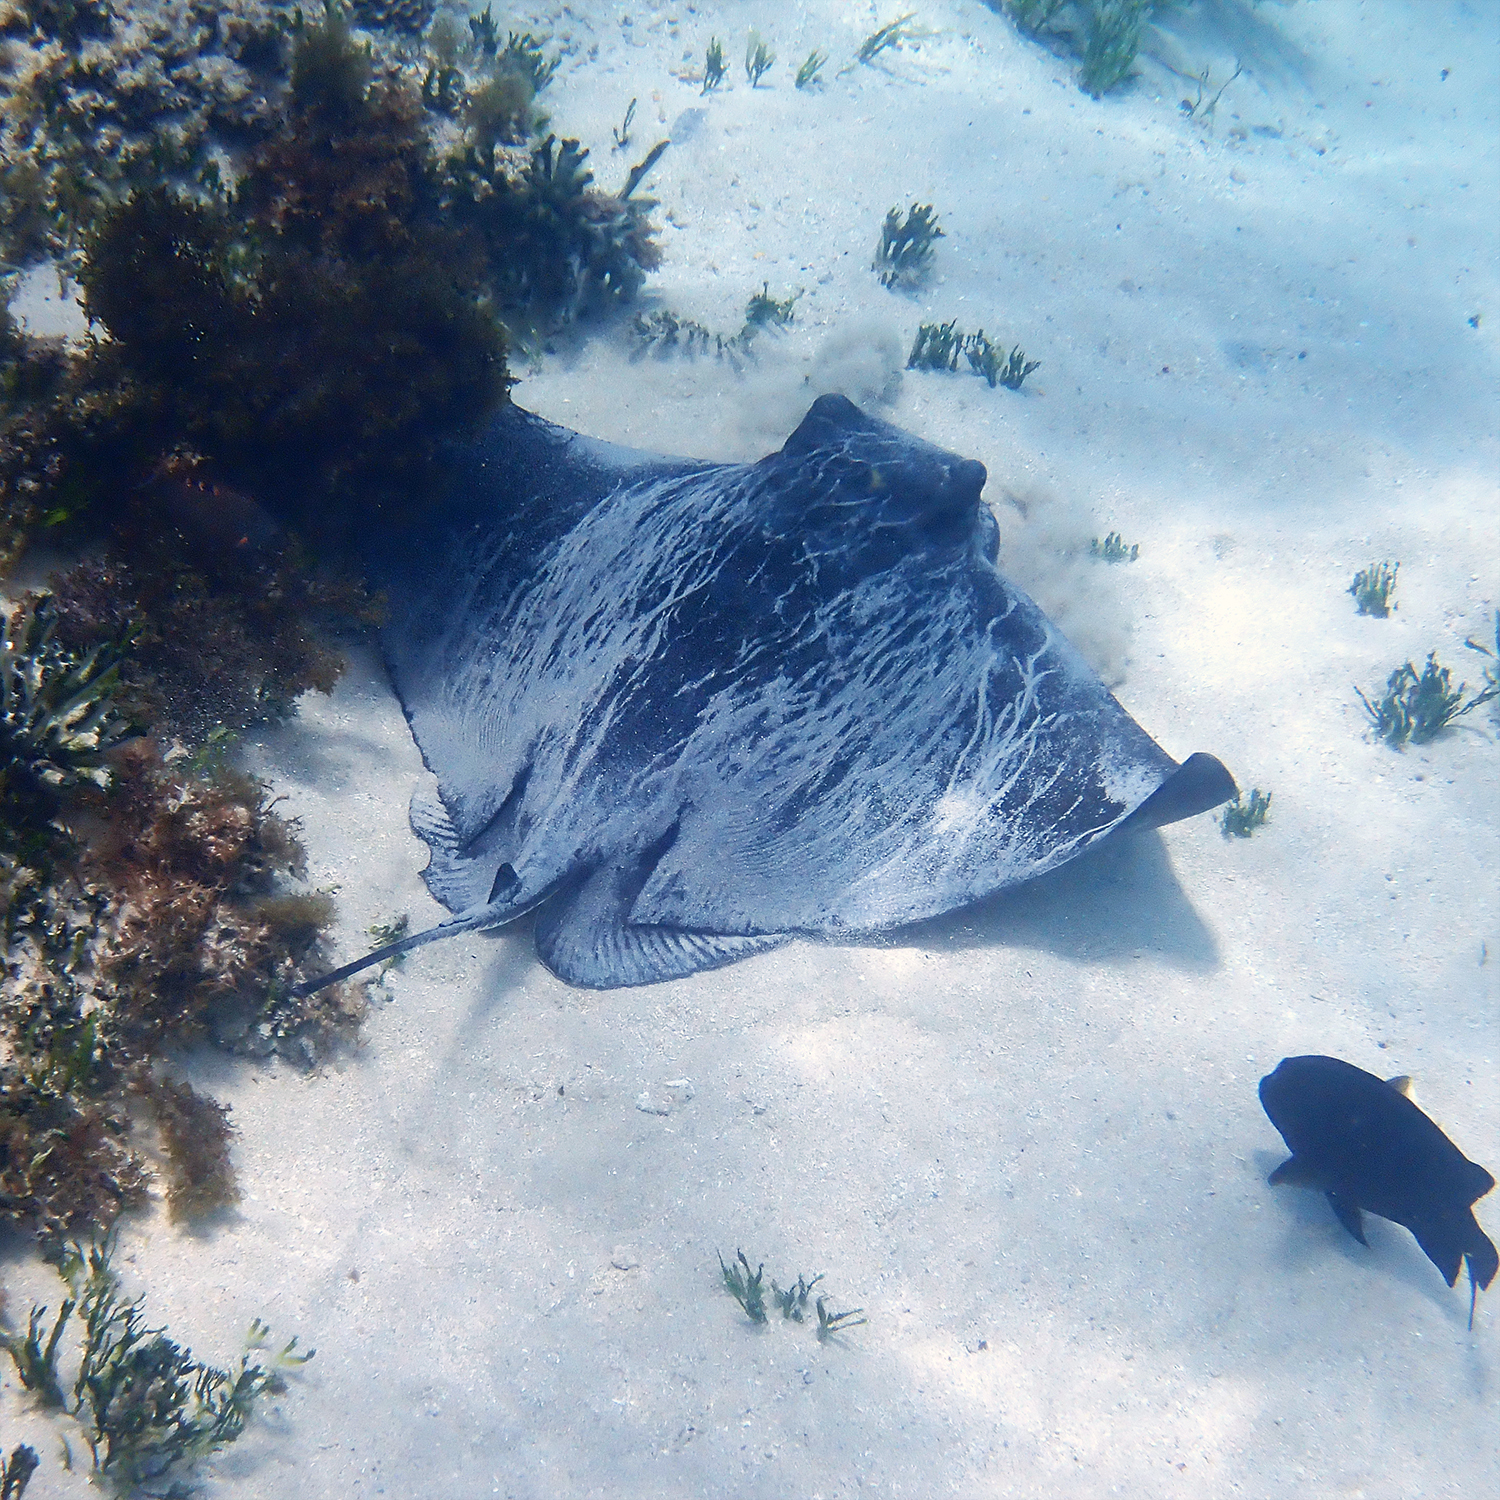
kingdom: Animalia
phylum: Chordata
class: Elasmobranchii
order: Myliobatiformes
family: Myliobatidae
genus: Myliobatis
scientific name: Myliobatis tenuicaudatus
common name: Eagle ray
